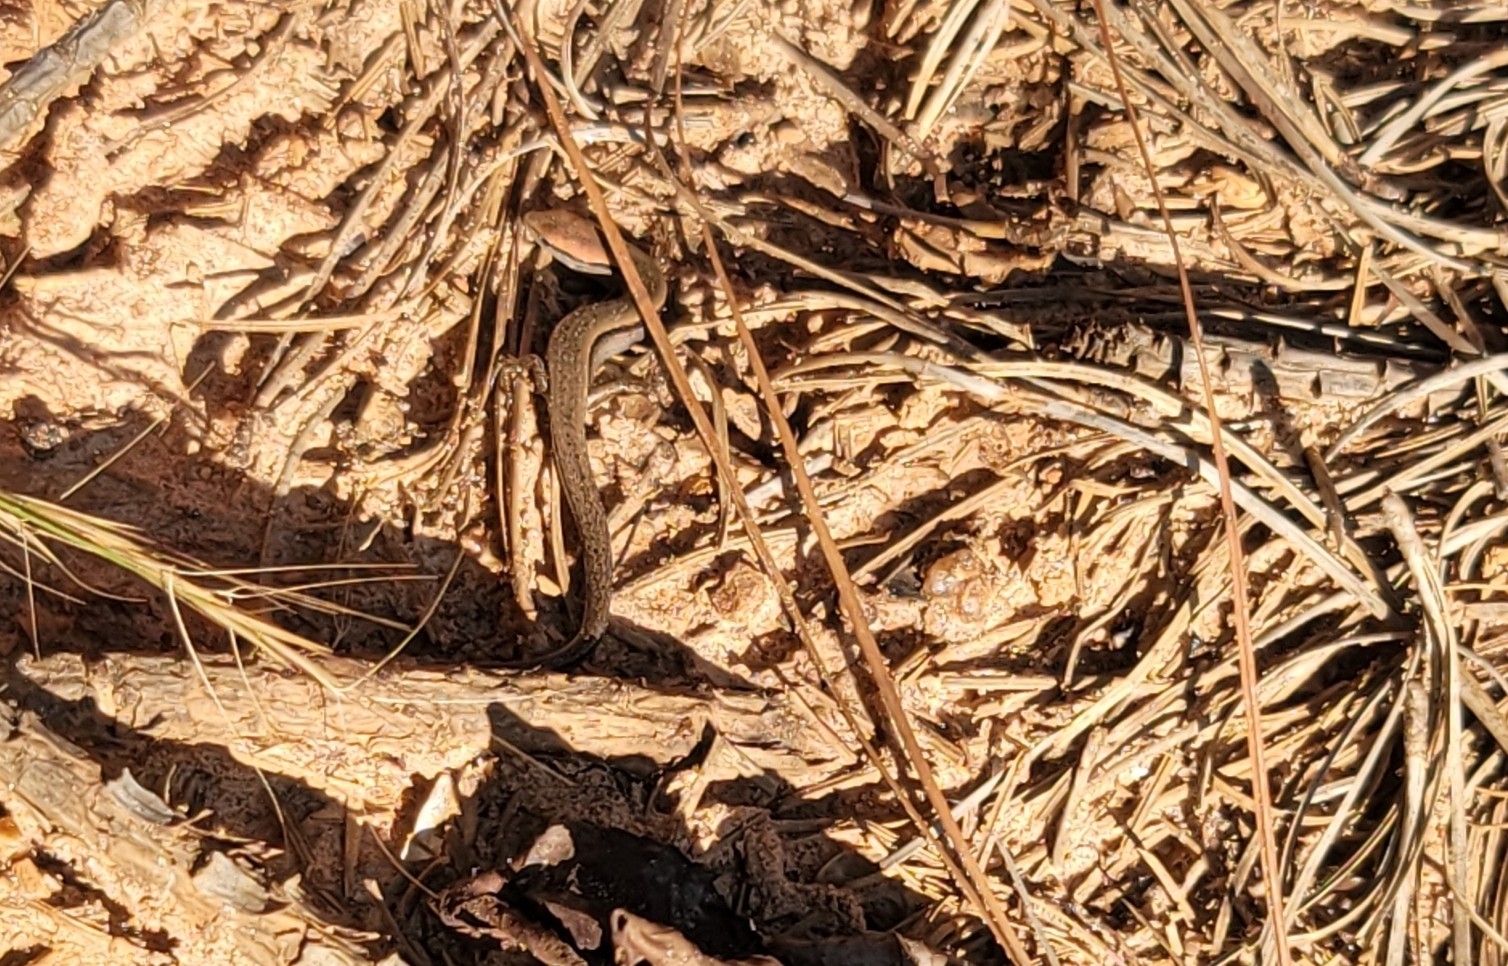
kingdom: Animalia
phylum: Chordata
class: Squamata
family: Scincidae
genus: Scincella
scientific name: Scincella lateralis
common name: Ground skink
